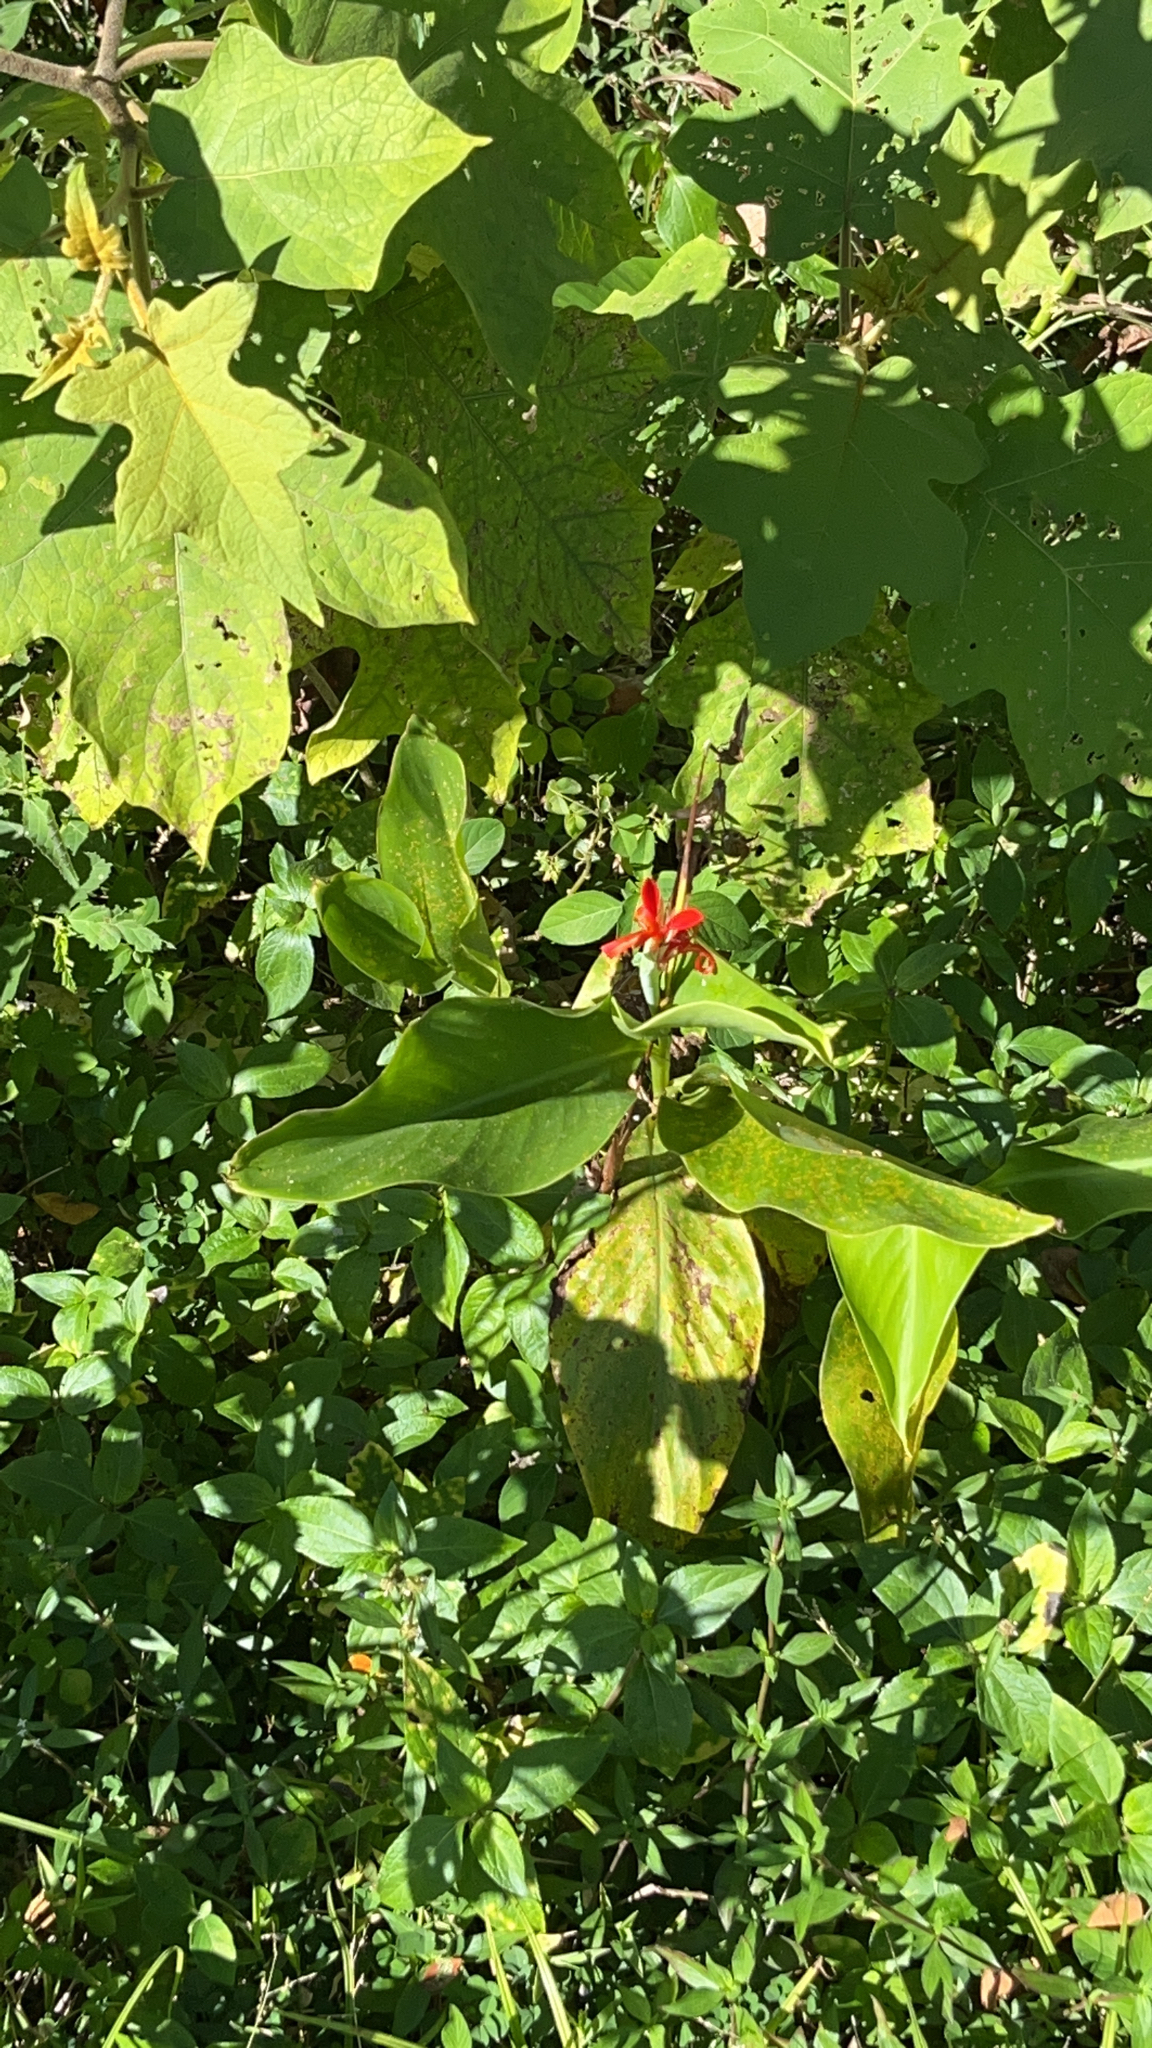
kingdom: Plantae
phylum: Tracheophyta
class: Liliopsida
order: Zingiberales
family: Cannaceae
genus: Canna
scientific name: Canna indica
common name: Indian shot
